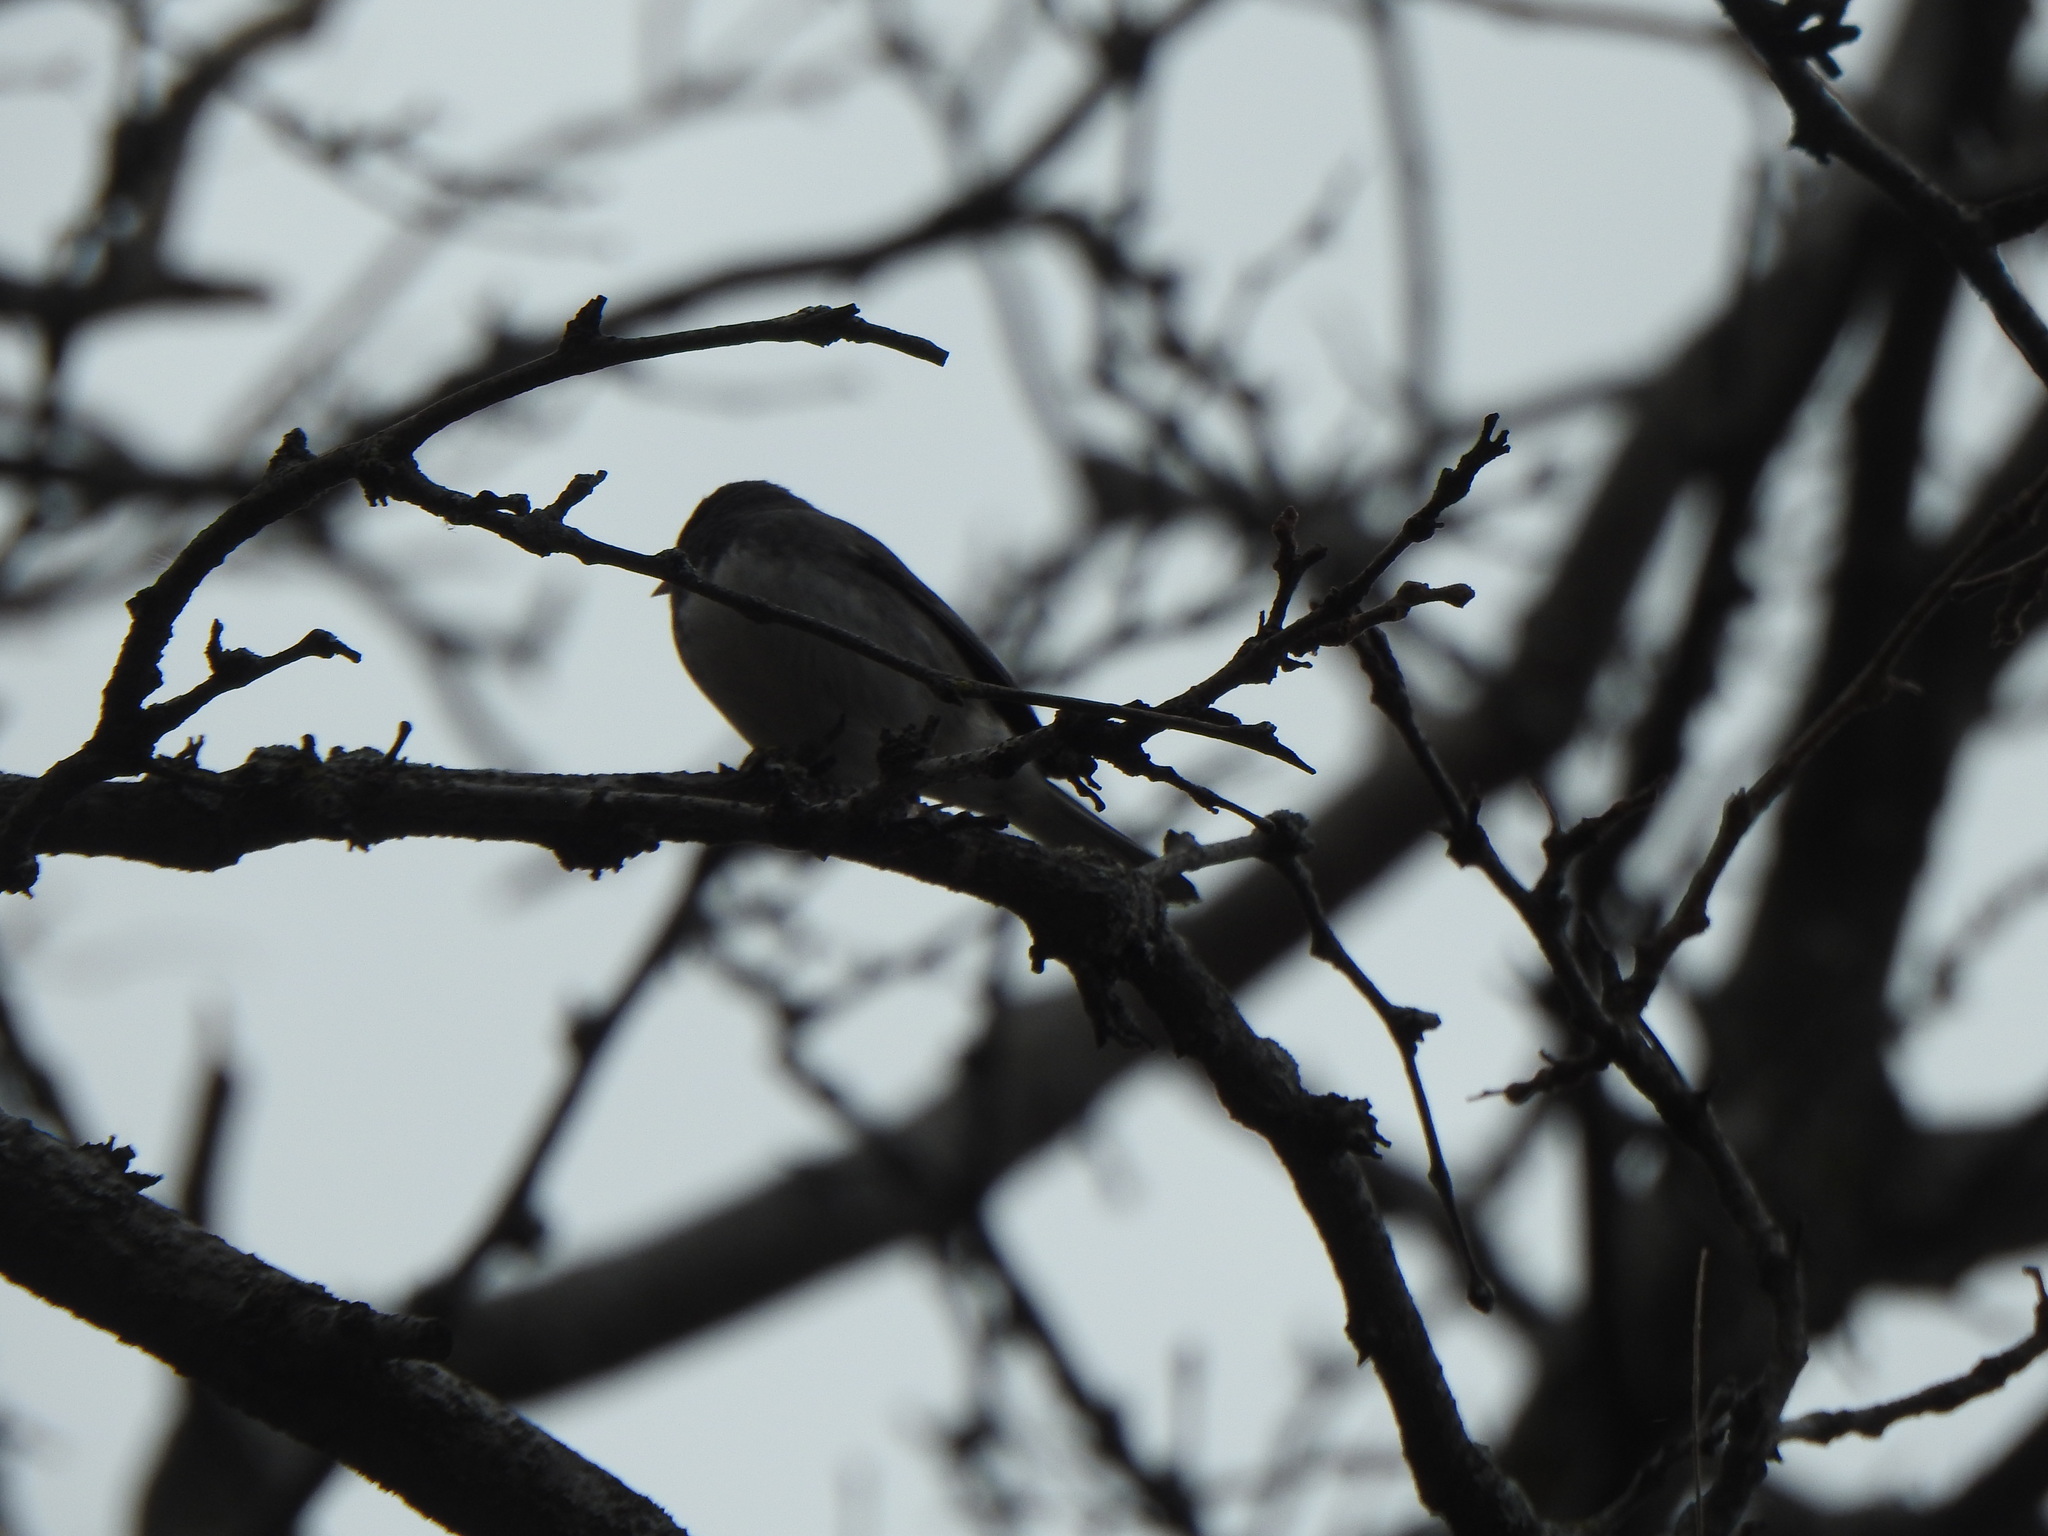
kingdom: Animalia
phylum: Chordata
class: Aves
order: Passeriformes
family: Passerellidae
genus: Junco
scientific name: Junco hyemalis
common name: Dark-eyed junco
